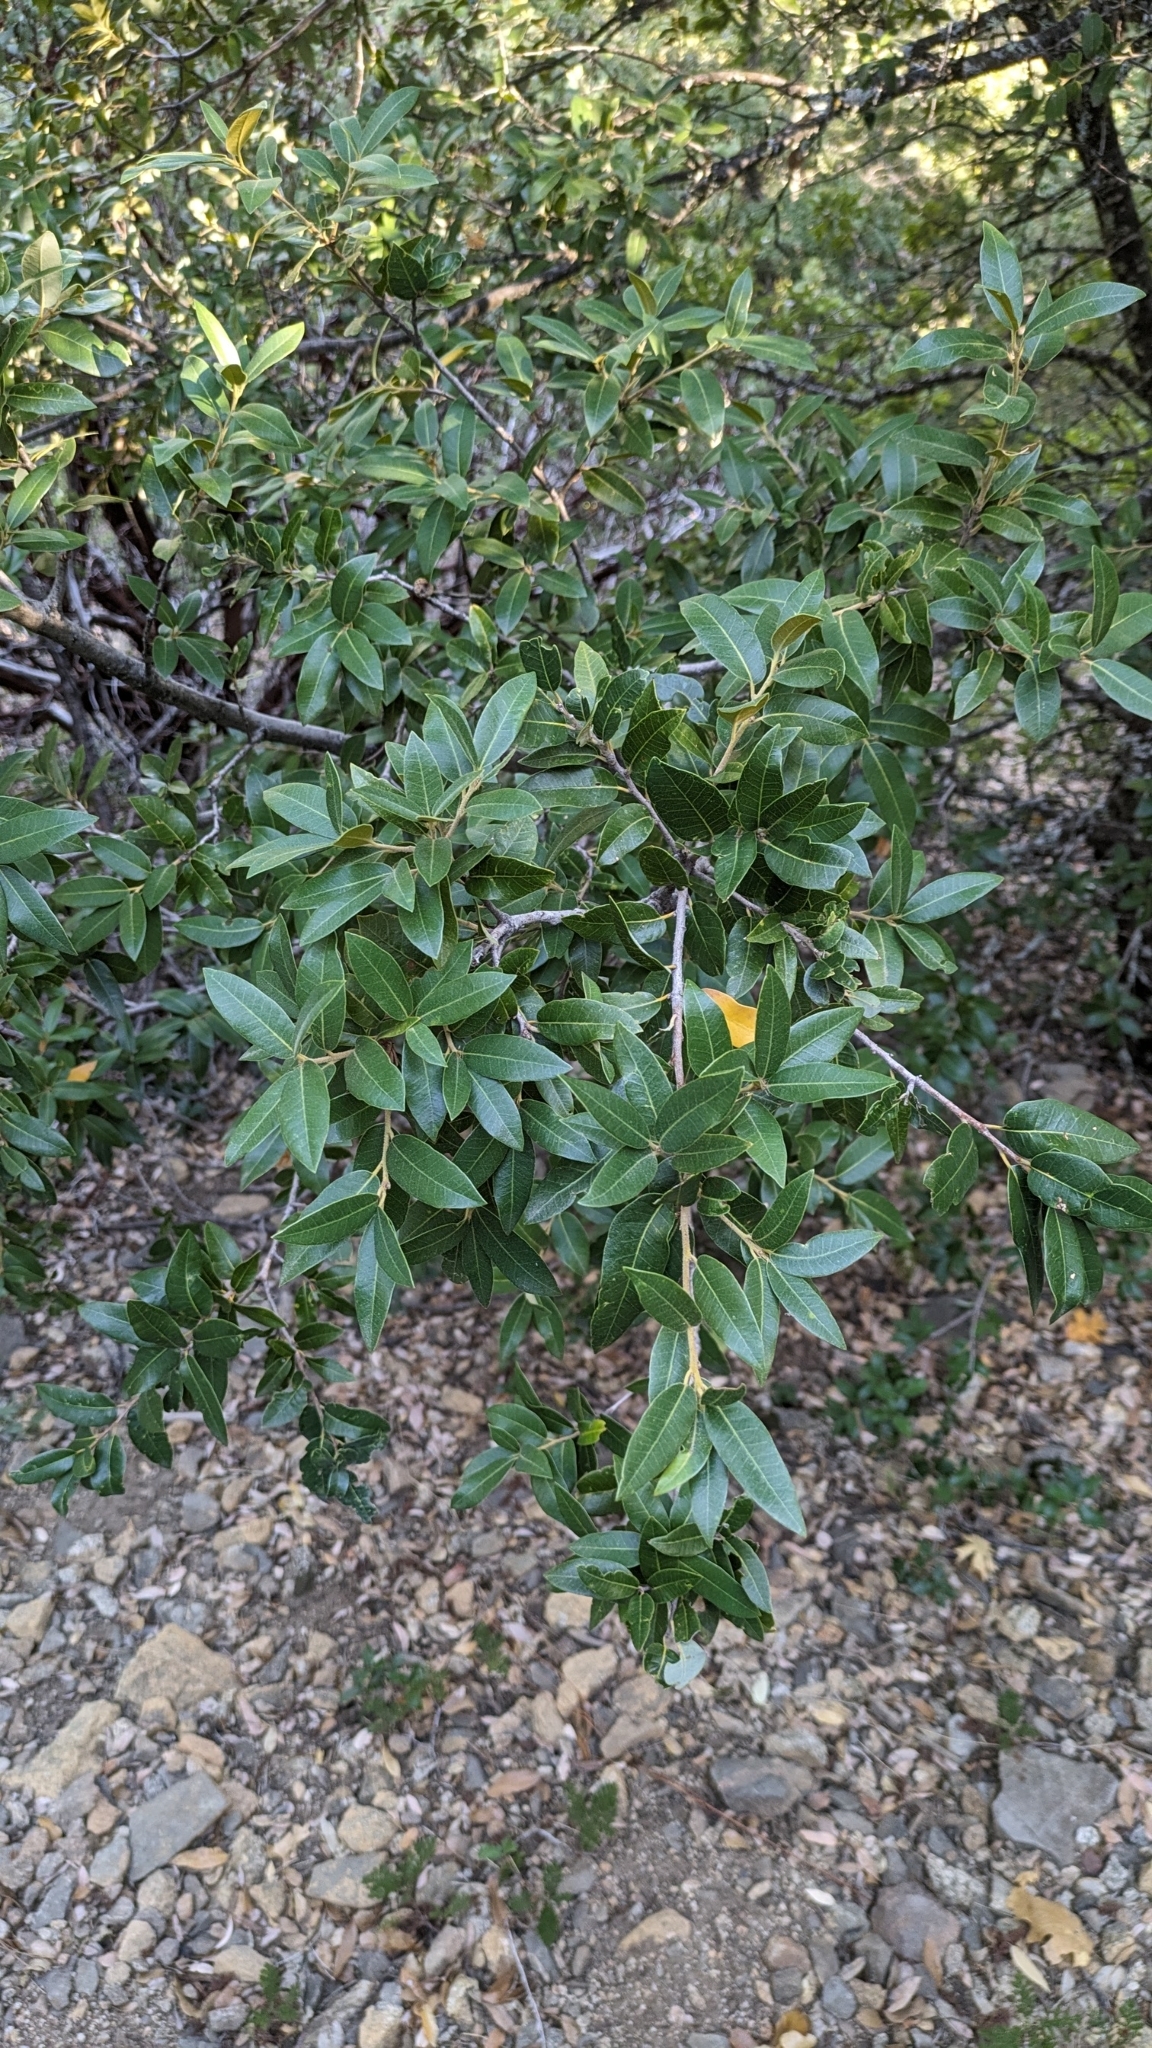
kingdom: Plantae
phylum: Tracheophyta
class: Magnoliopsida
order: Fagales
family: Fagaceae
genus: Quercus
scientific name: Quercus chrysolepis
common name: Canyon live oak
